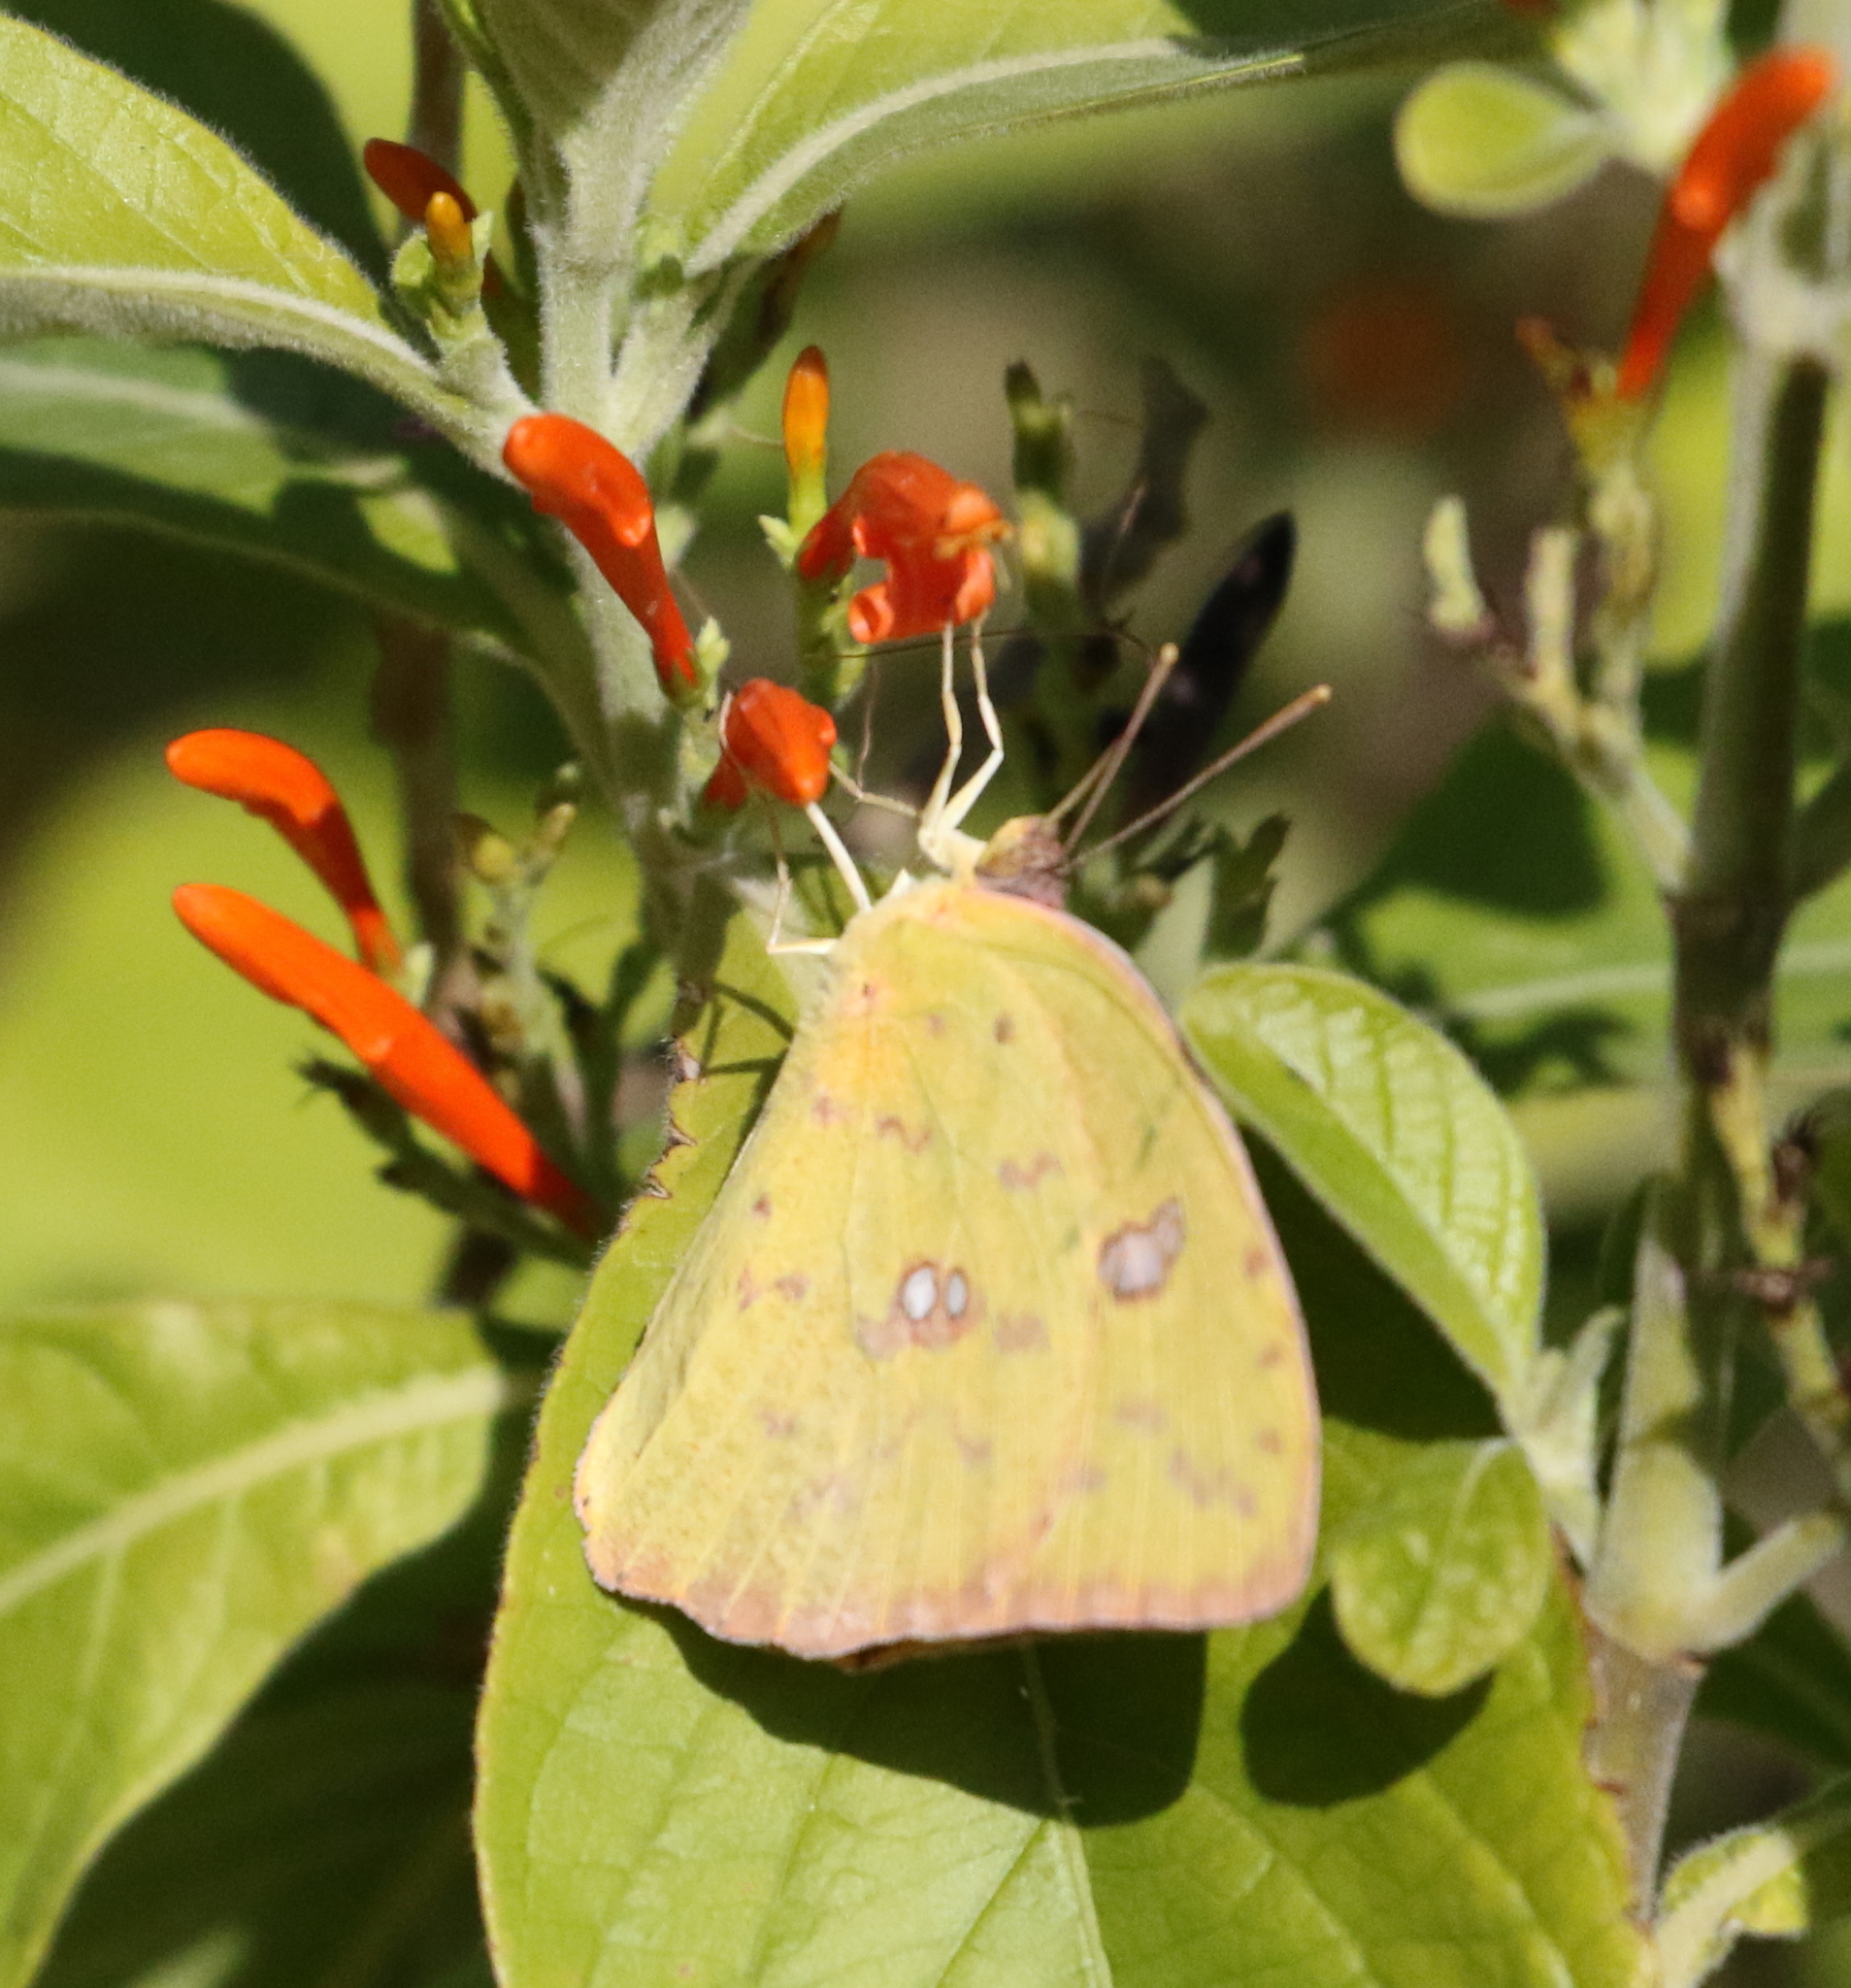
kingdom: Animalia
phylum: Arthropoda
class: Insecta
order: Lepidoptera
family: Pieridae
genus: Phoebis
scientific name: Phoebis sennae
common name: Cloudless sulphur
